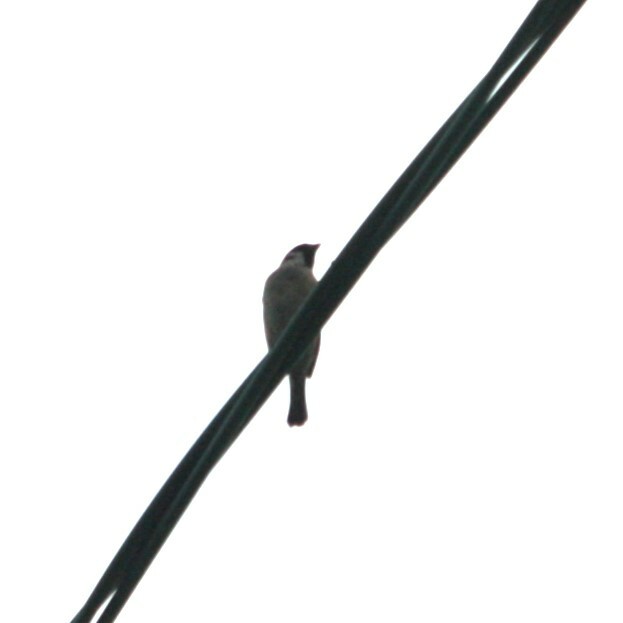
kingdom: Animalia
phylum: Chordata
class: Aves
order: Passeriformes
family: Passeridae
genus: Passer
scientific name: Passer montanus
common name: Eurasian tree sparrow
